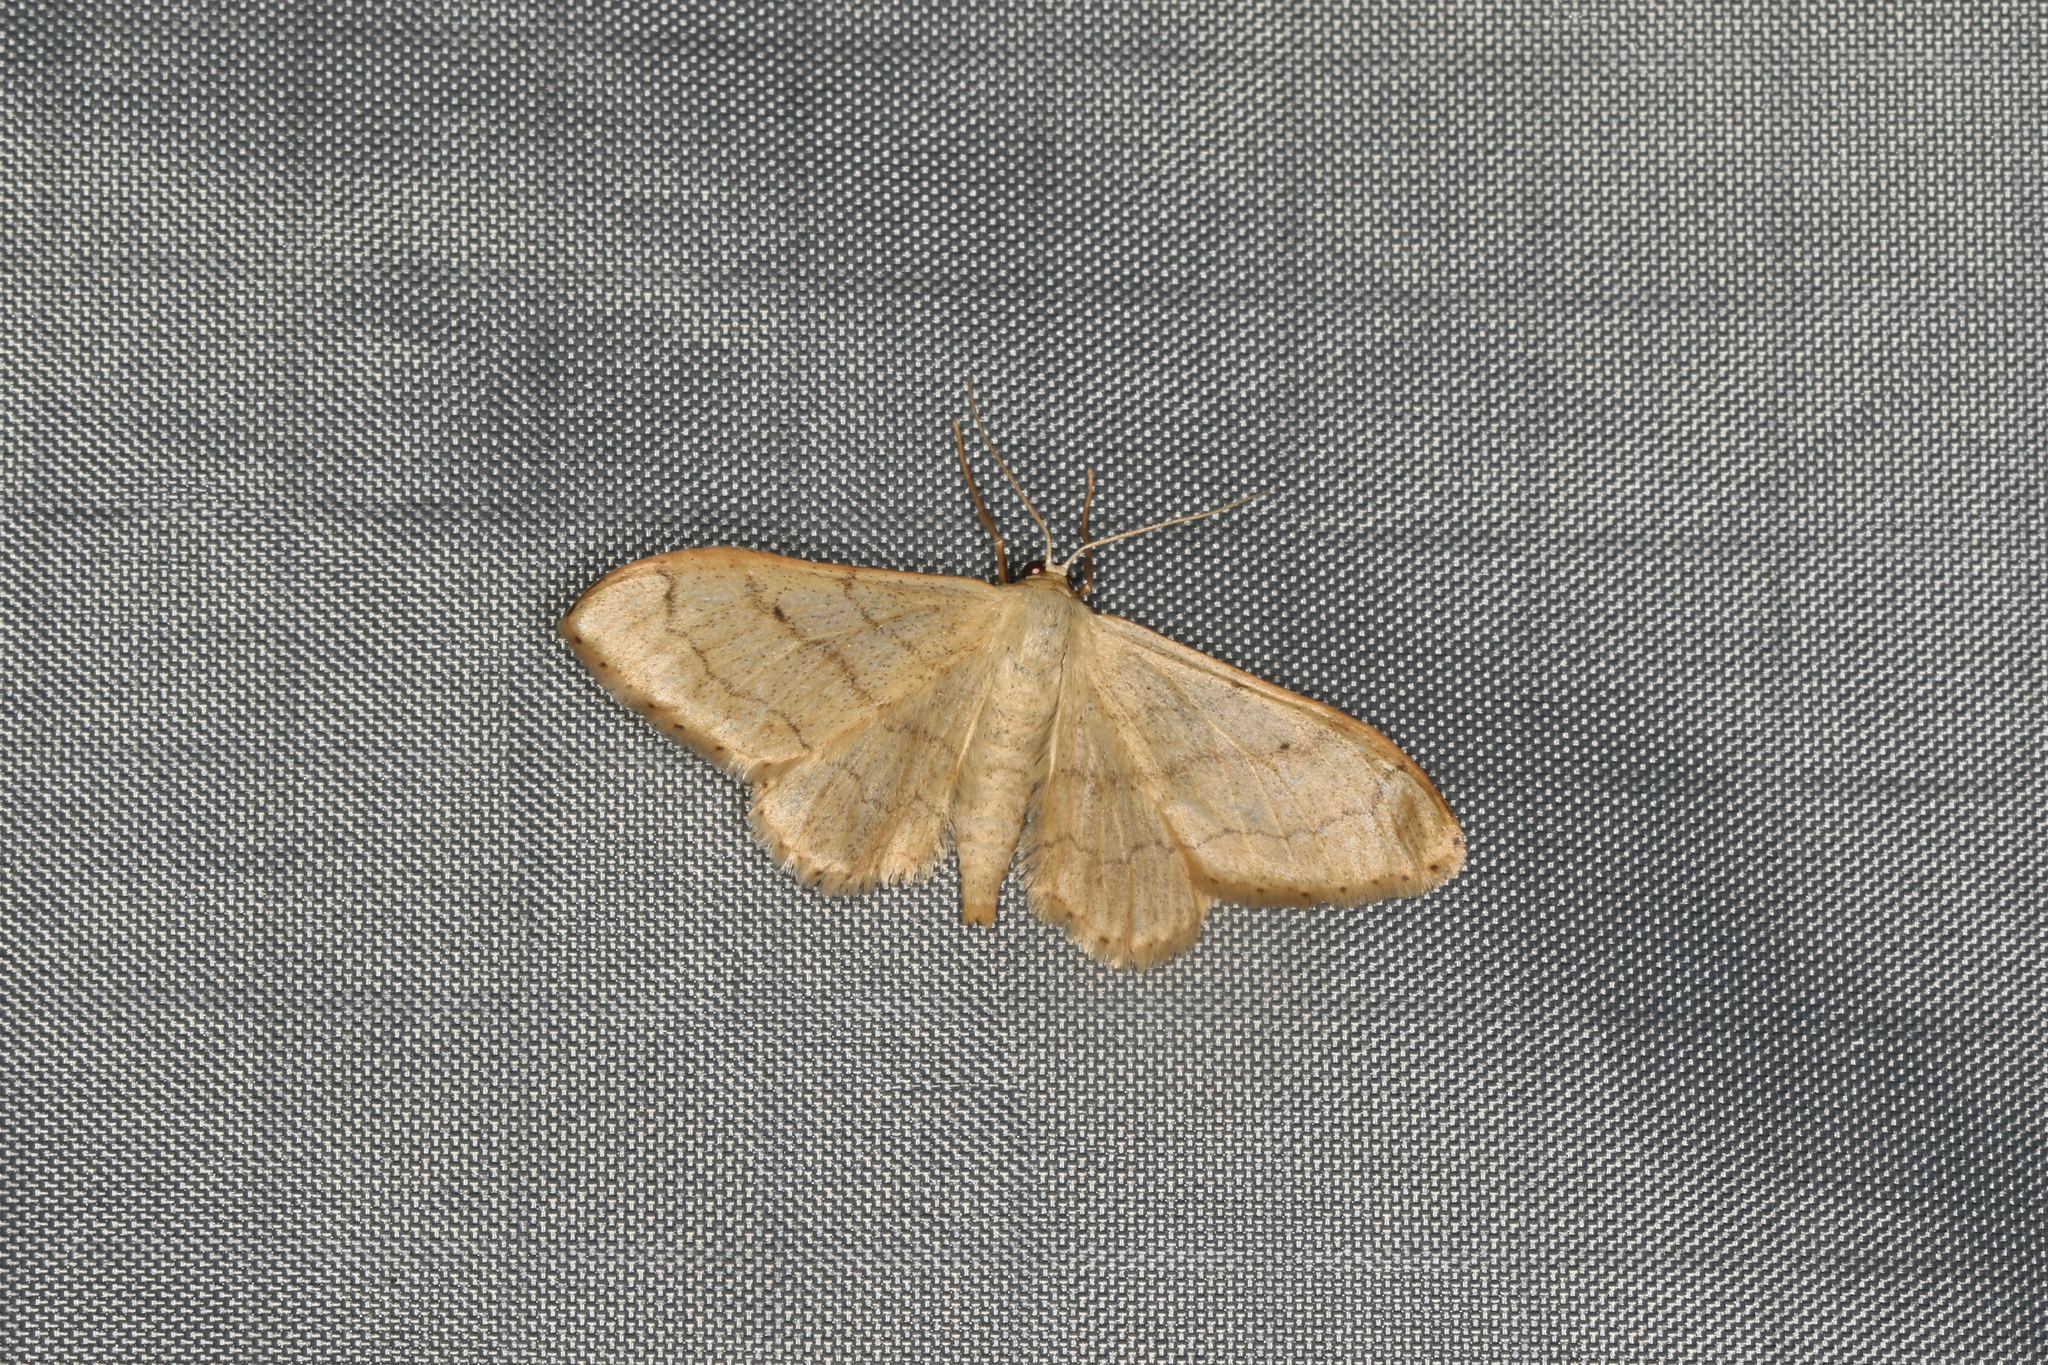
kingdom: Animalia
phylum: Arthropoda
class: Insecta
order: Lepidoptera
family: Geometridae
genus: Idaea
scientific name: Idaea aversata
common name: Riband wave
